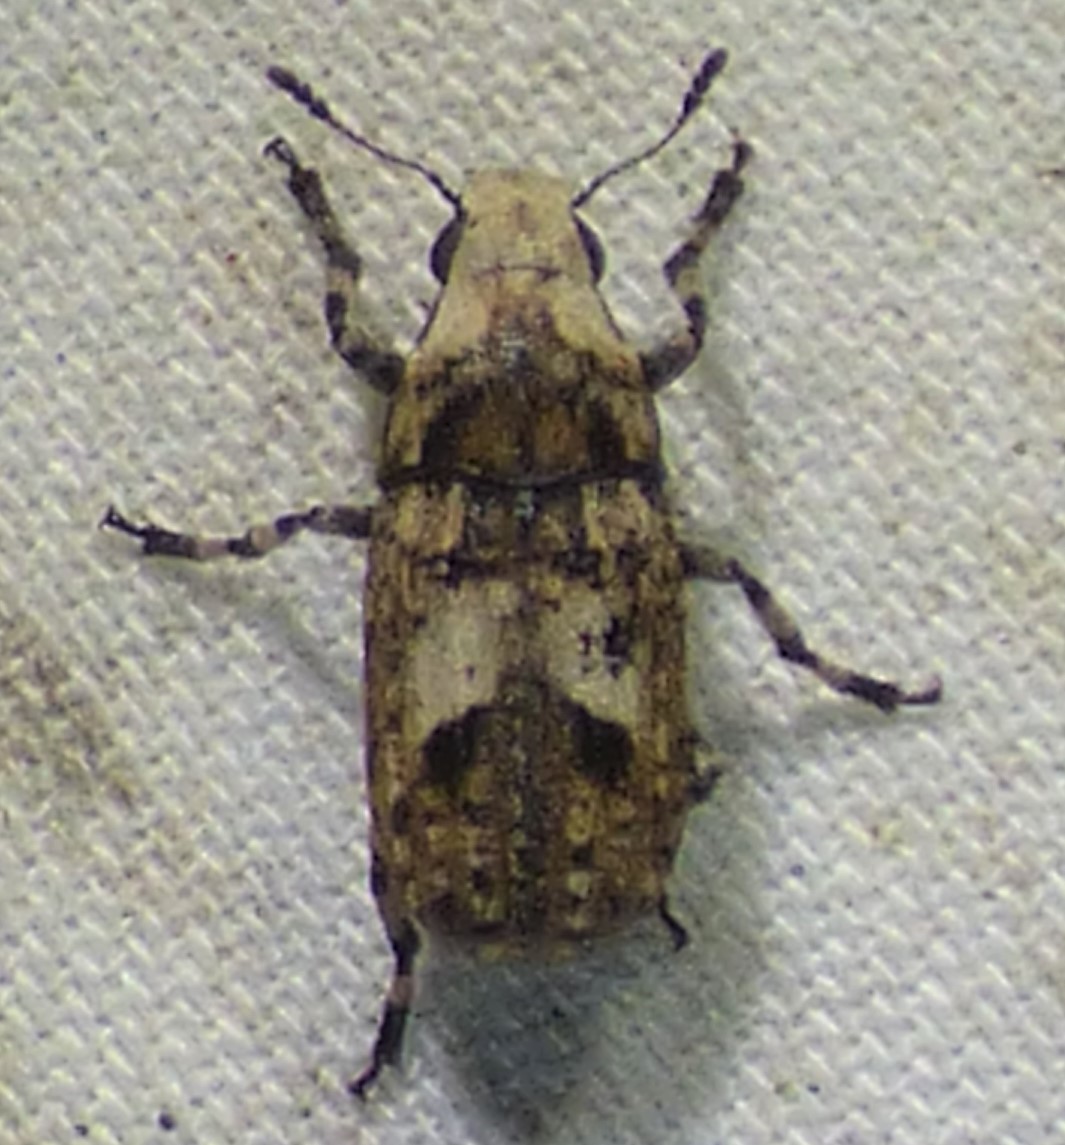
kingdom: Animalia
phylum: Arthropoda
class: Insecta
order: Coleoptera
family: Anthribidae
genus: Euparius
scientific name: Euparius marmoreus
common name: Marbled fungus weevil
